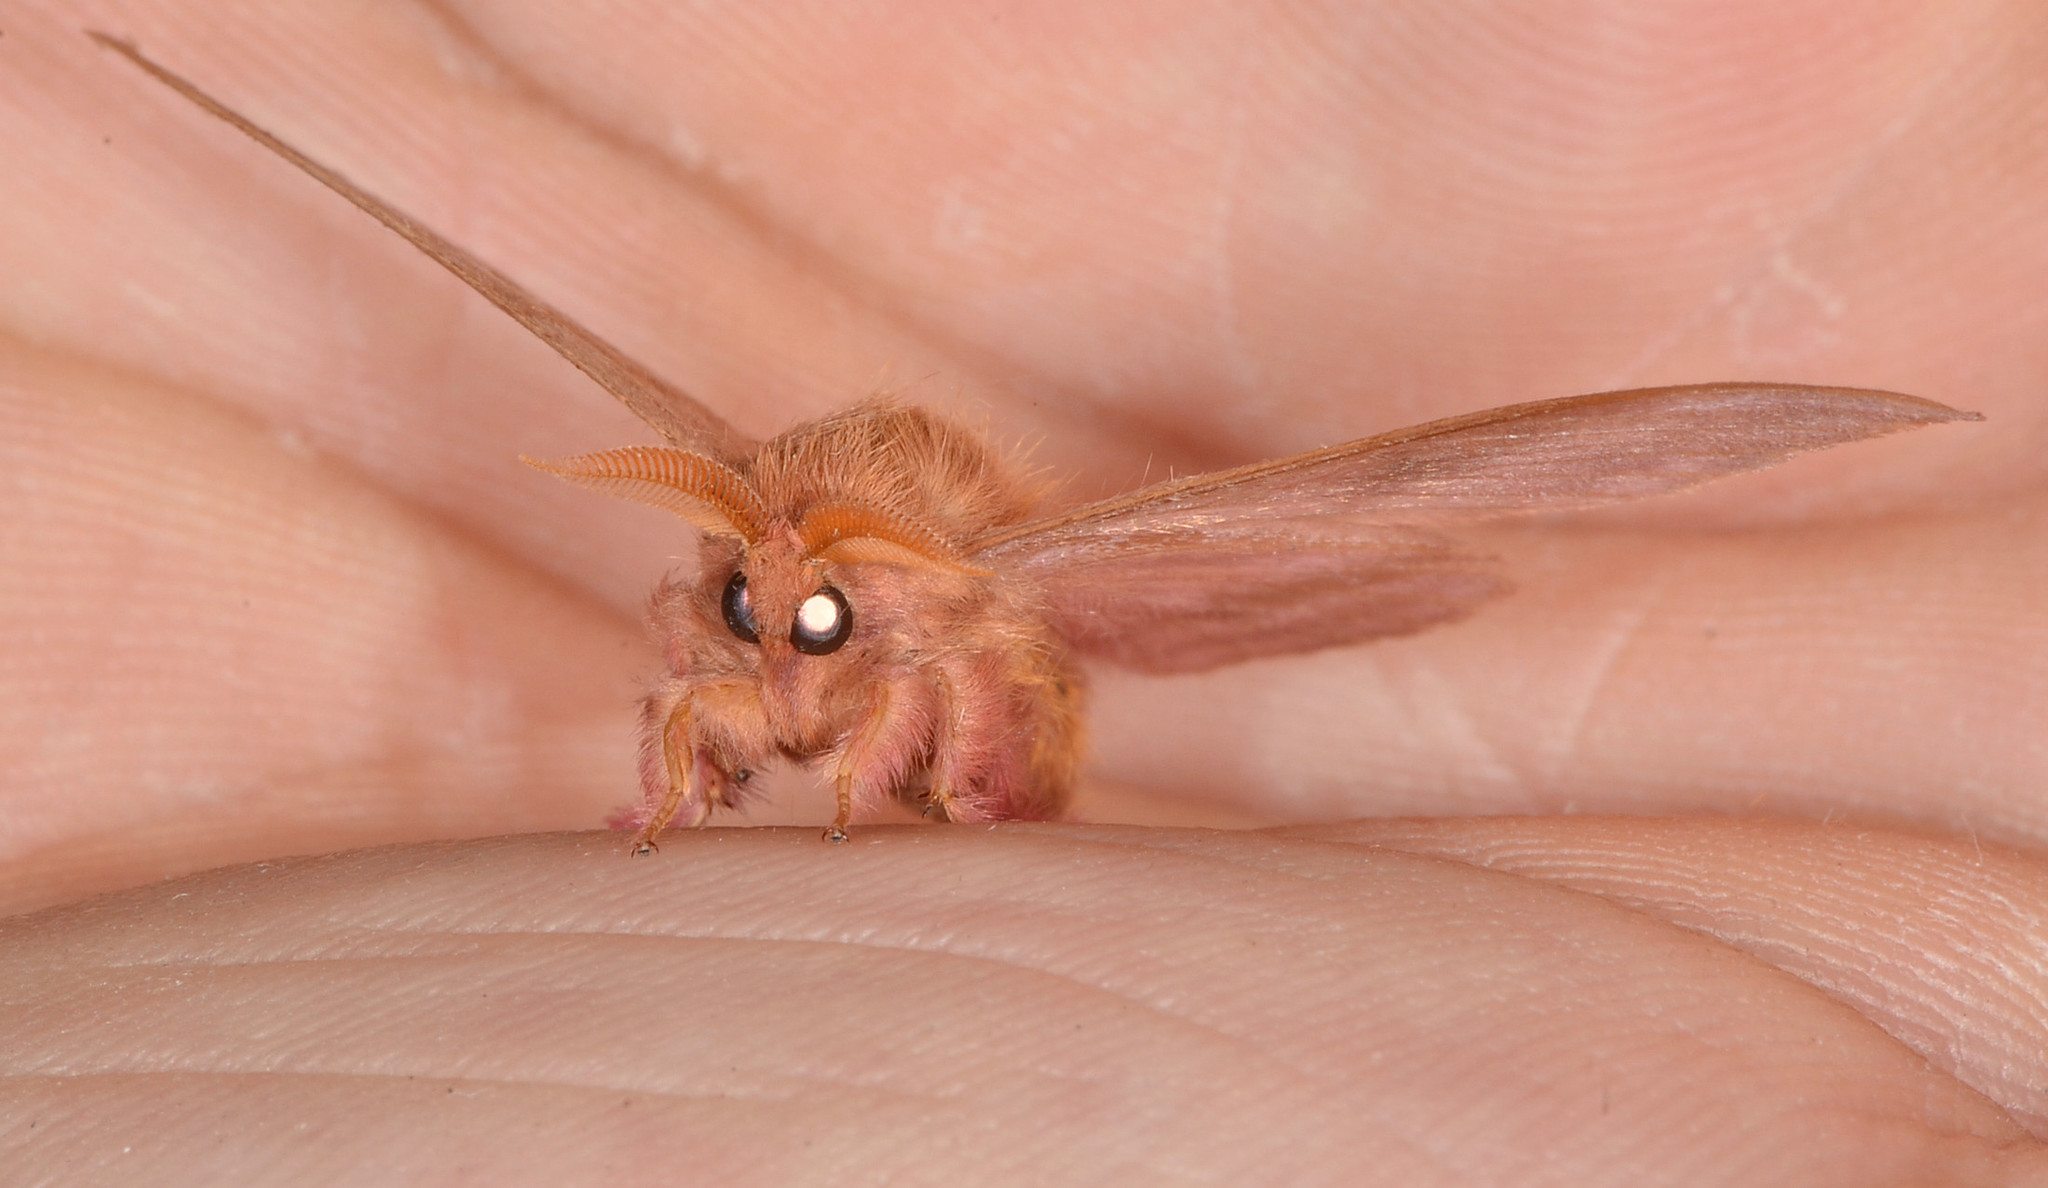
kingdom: Animalia
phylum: Arthropoda
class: Insecta
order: Lepidoptera
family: Saturniidae
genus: Hylesia
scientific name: Hylesia colimatifex
